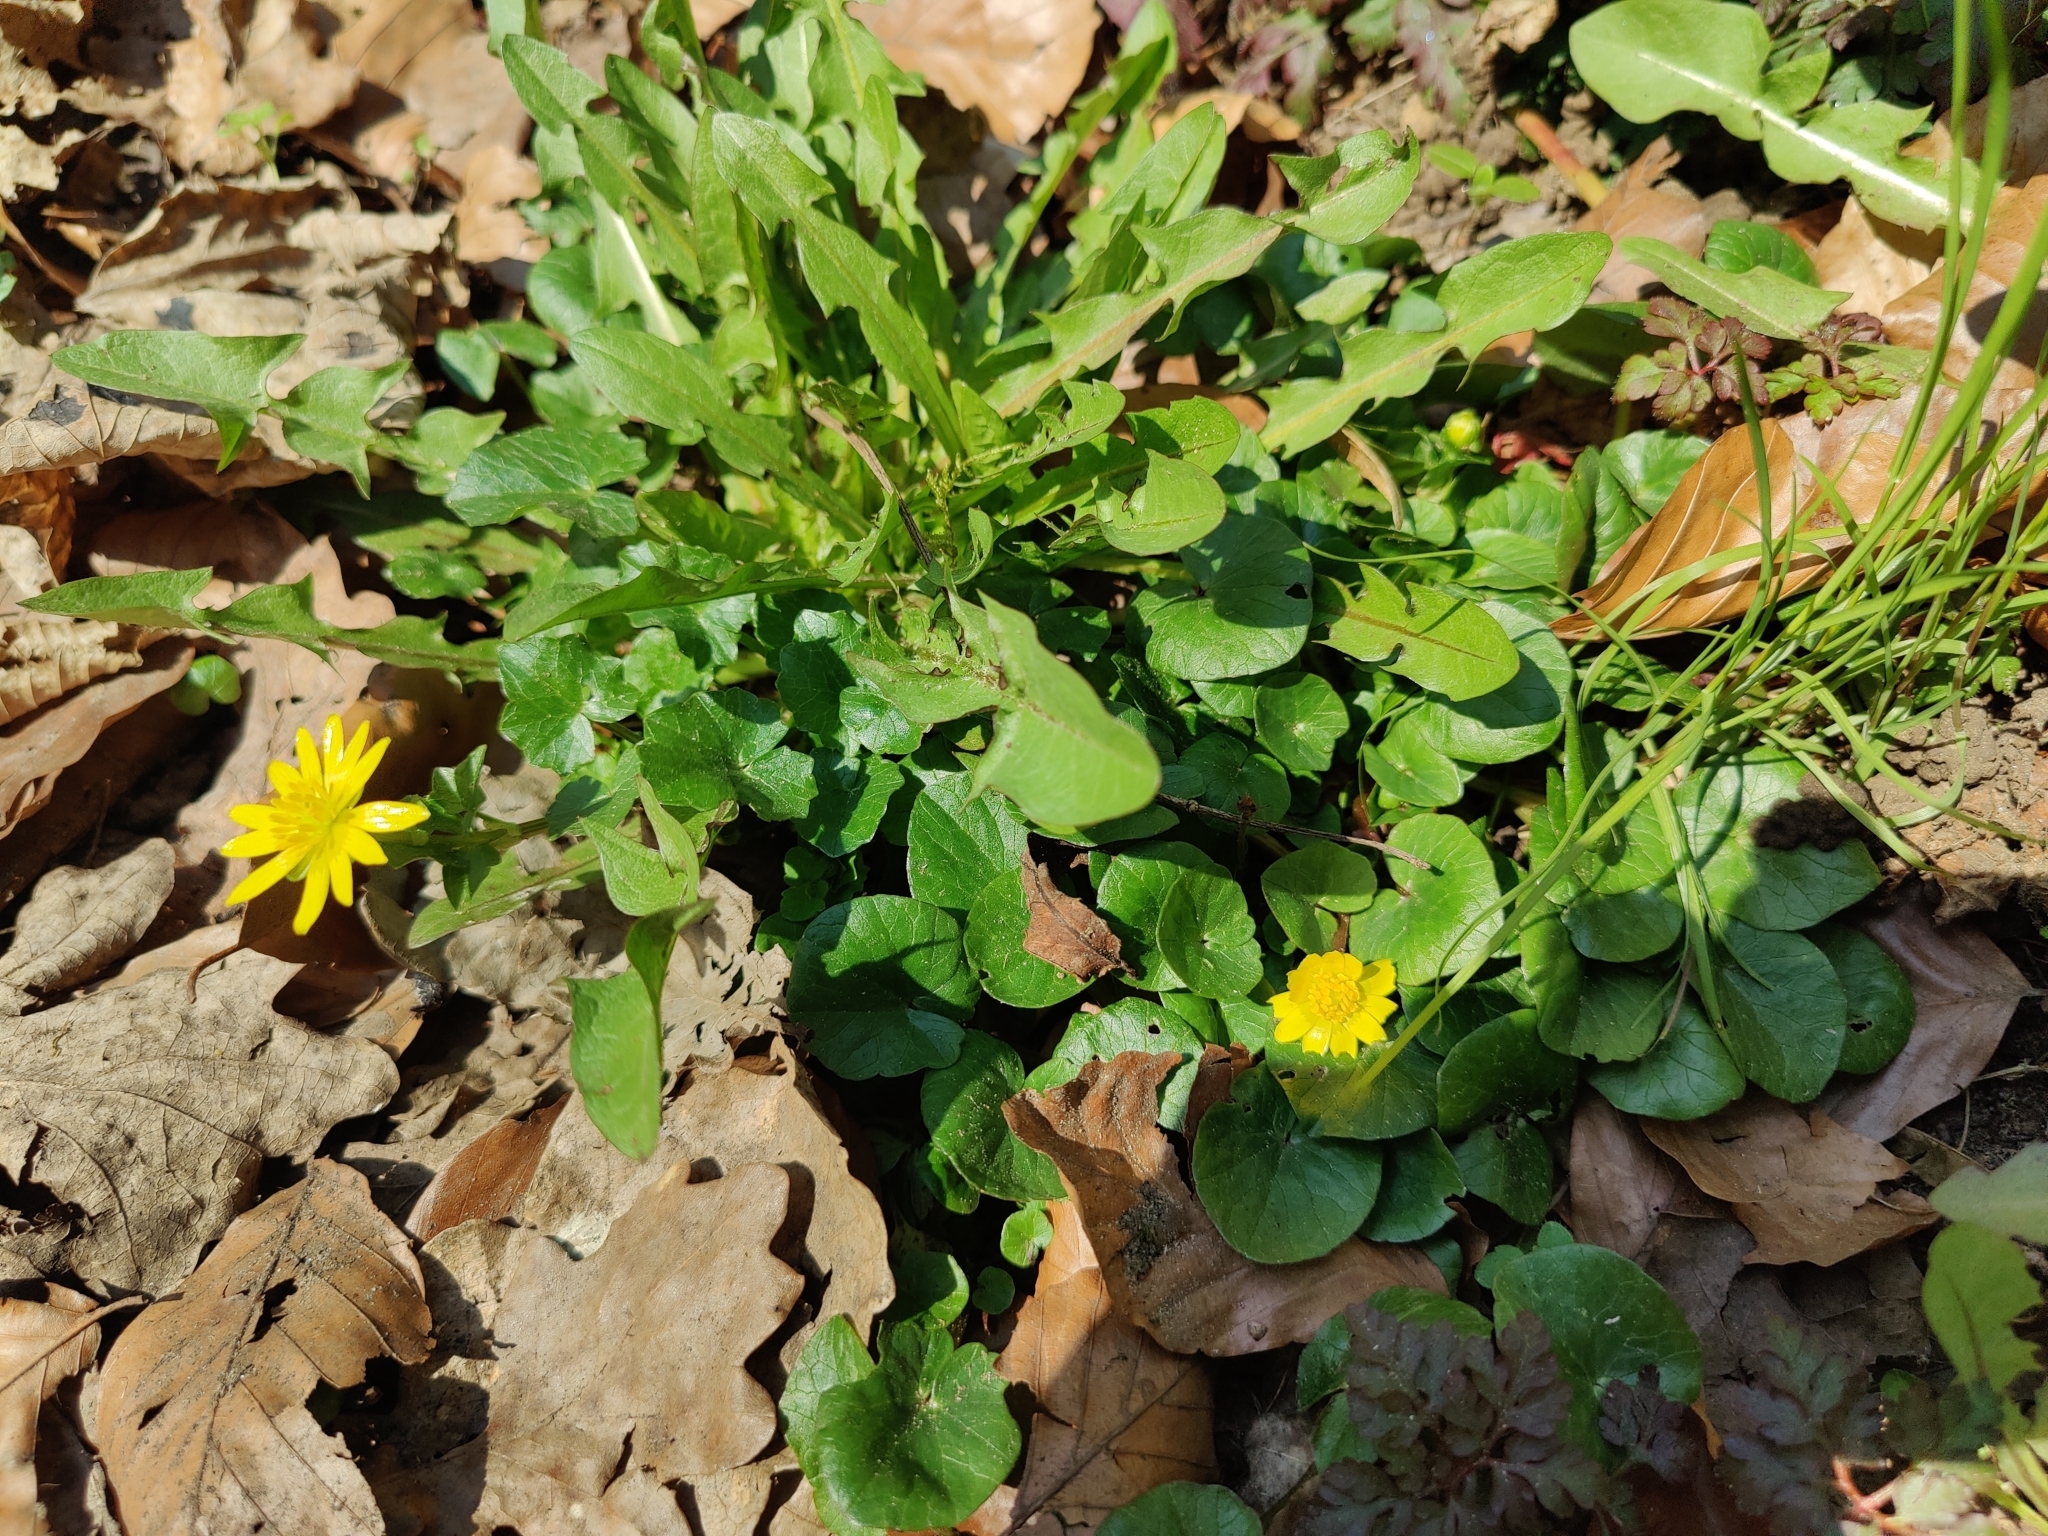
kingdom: Plantae
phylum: Tracheophyta
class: Magnoliopsida
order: Ranunculales
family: Ranunculaceae
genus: Ficaria
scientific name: Ficaria verna
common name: Lesser celandine
